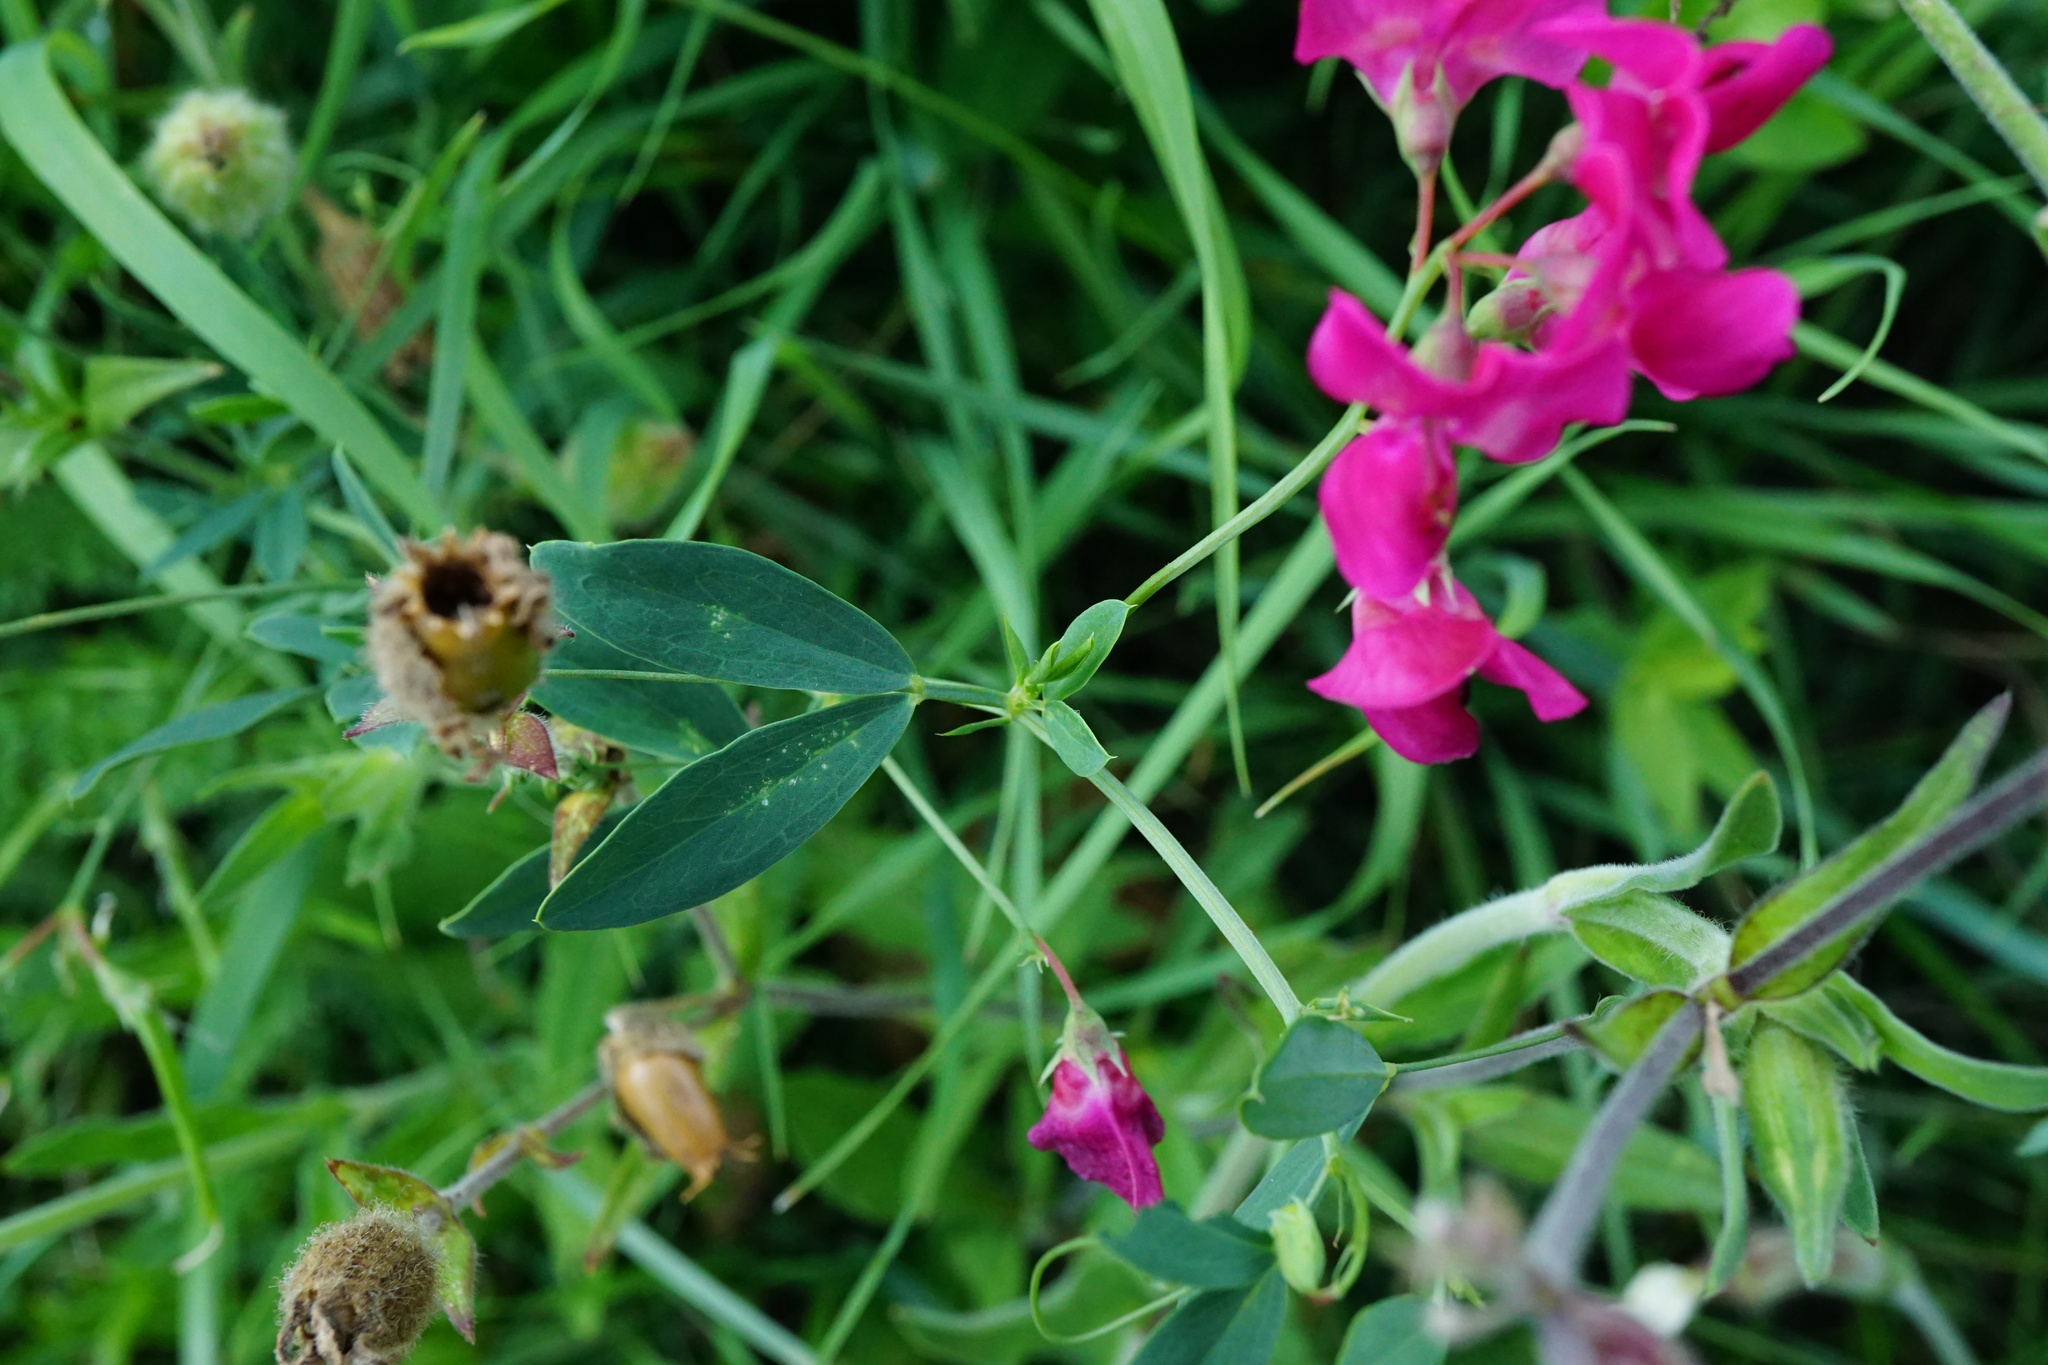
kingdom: Plantae
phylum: Tracheophyta
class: Magnoliopsida
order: Fabales
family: Fabaceae
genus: Lathyrus
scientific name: Lathyrus tuberosus
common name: Tuberous pea
